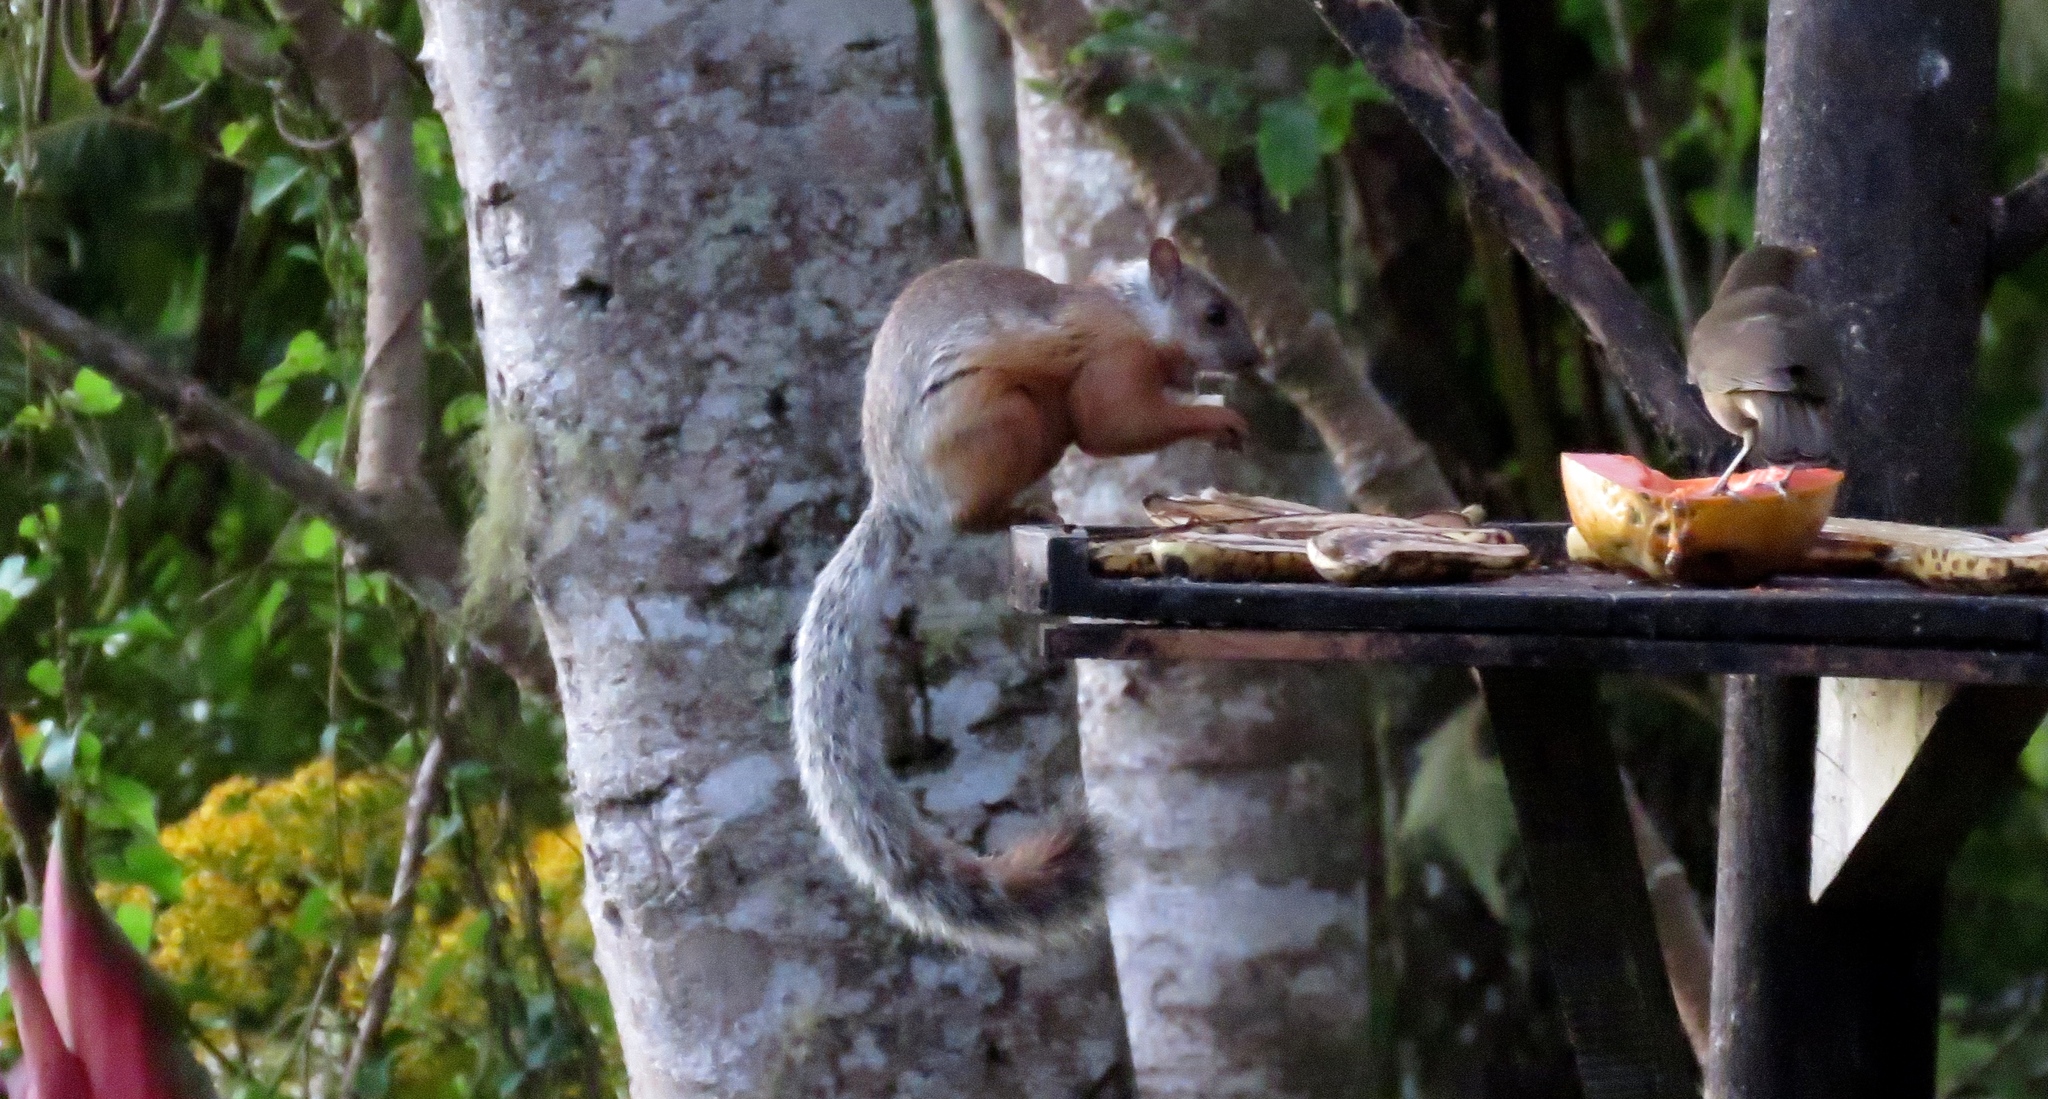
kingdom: Animalia
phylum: Chordata
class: Mammalia
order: Rodentia
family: Sciuridae
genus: Sciurus
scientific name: Sciurus variegatoides
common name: Variegated squirrel
